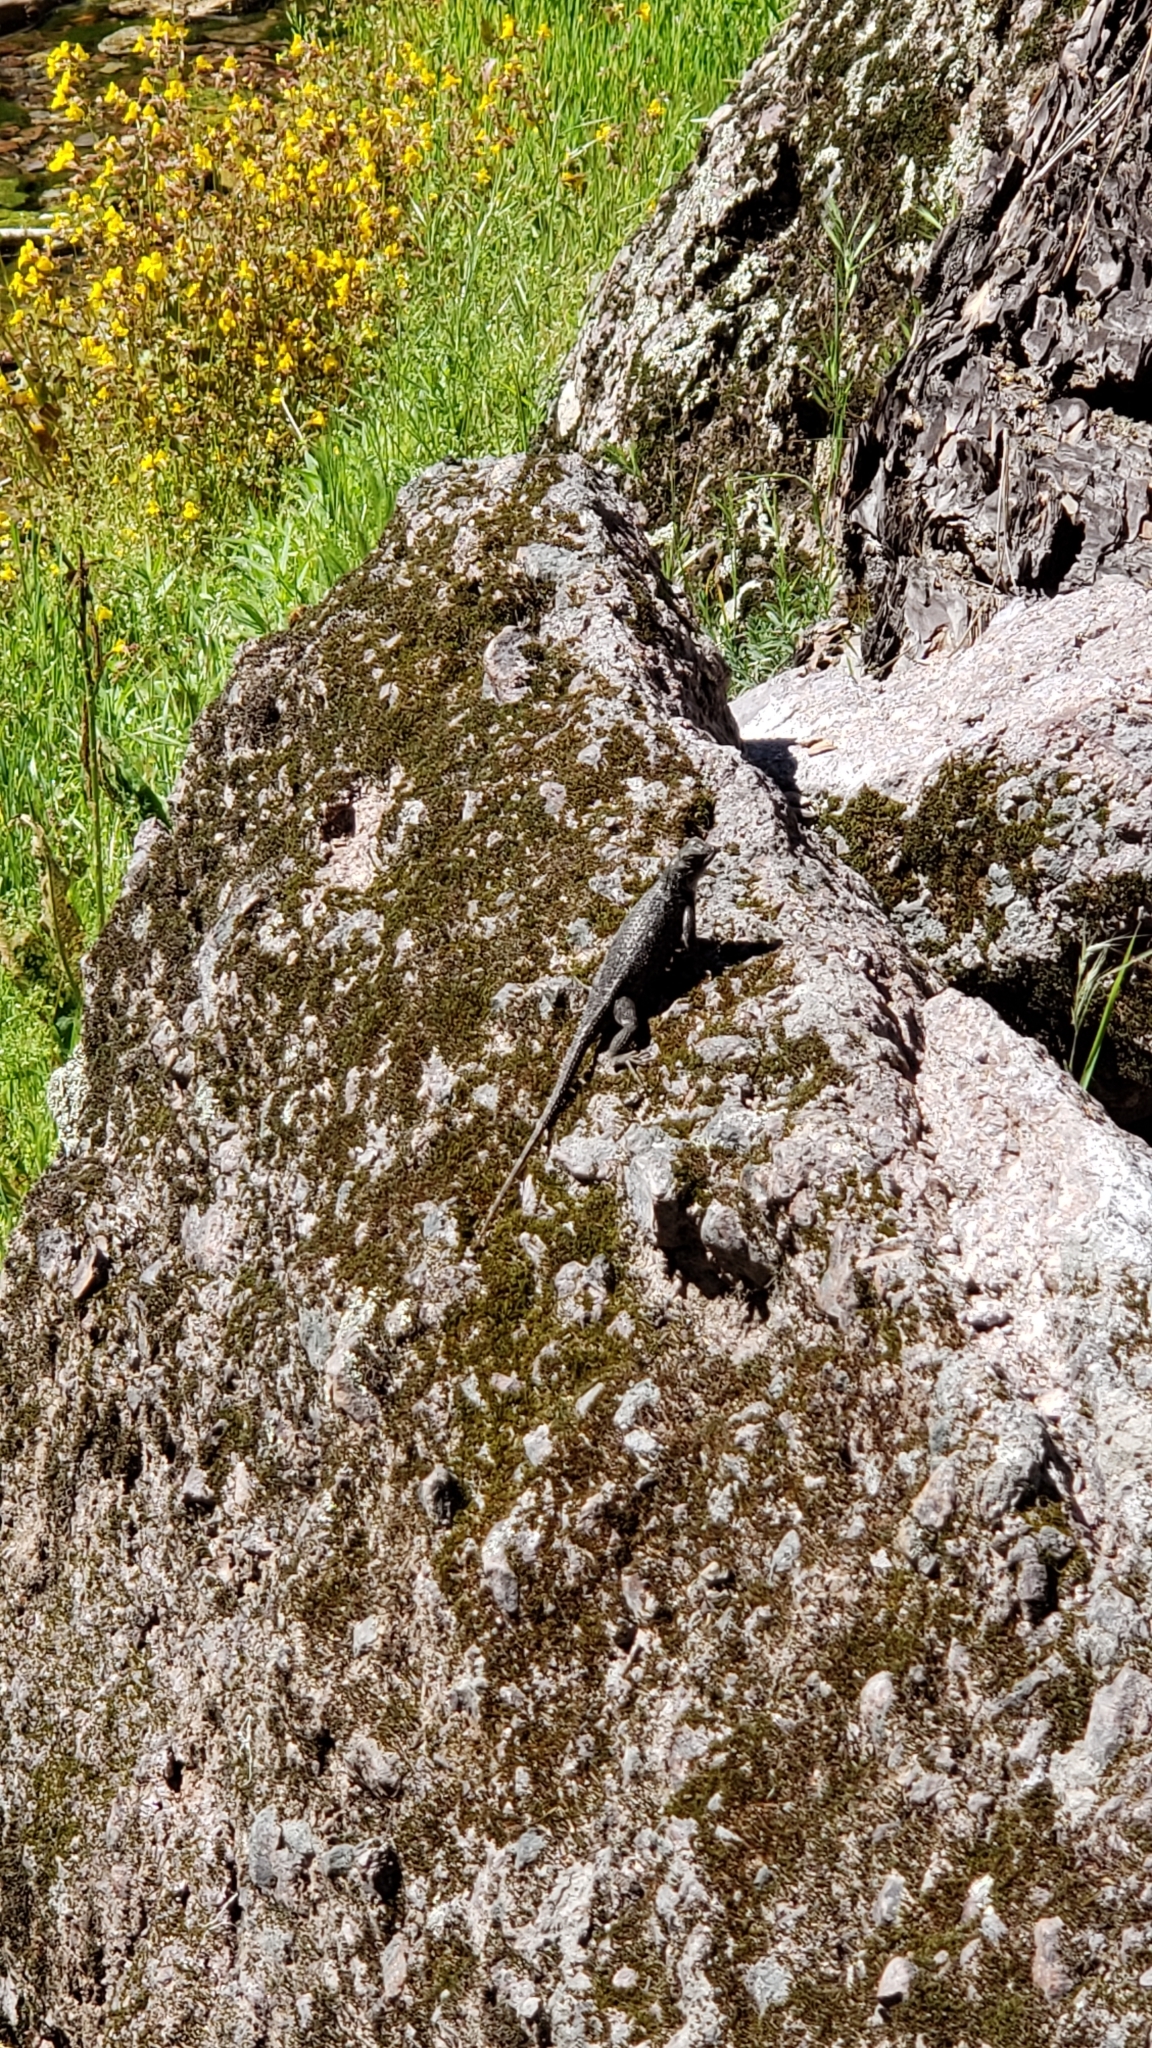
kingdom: Animalia
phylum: Chordata
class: Squamata
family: Phrynosomatidae
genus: Sceloporus
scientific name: Sceloporus occidentalis
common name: Western fence lizard
